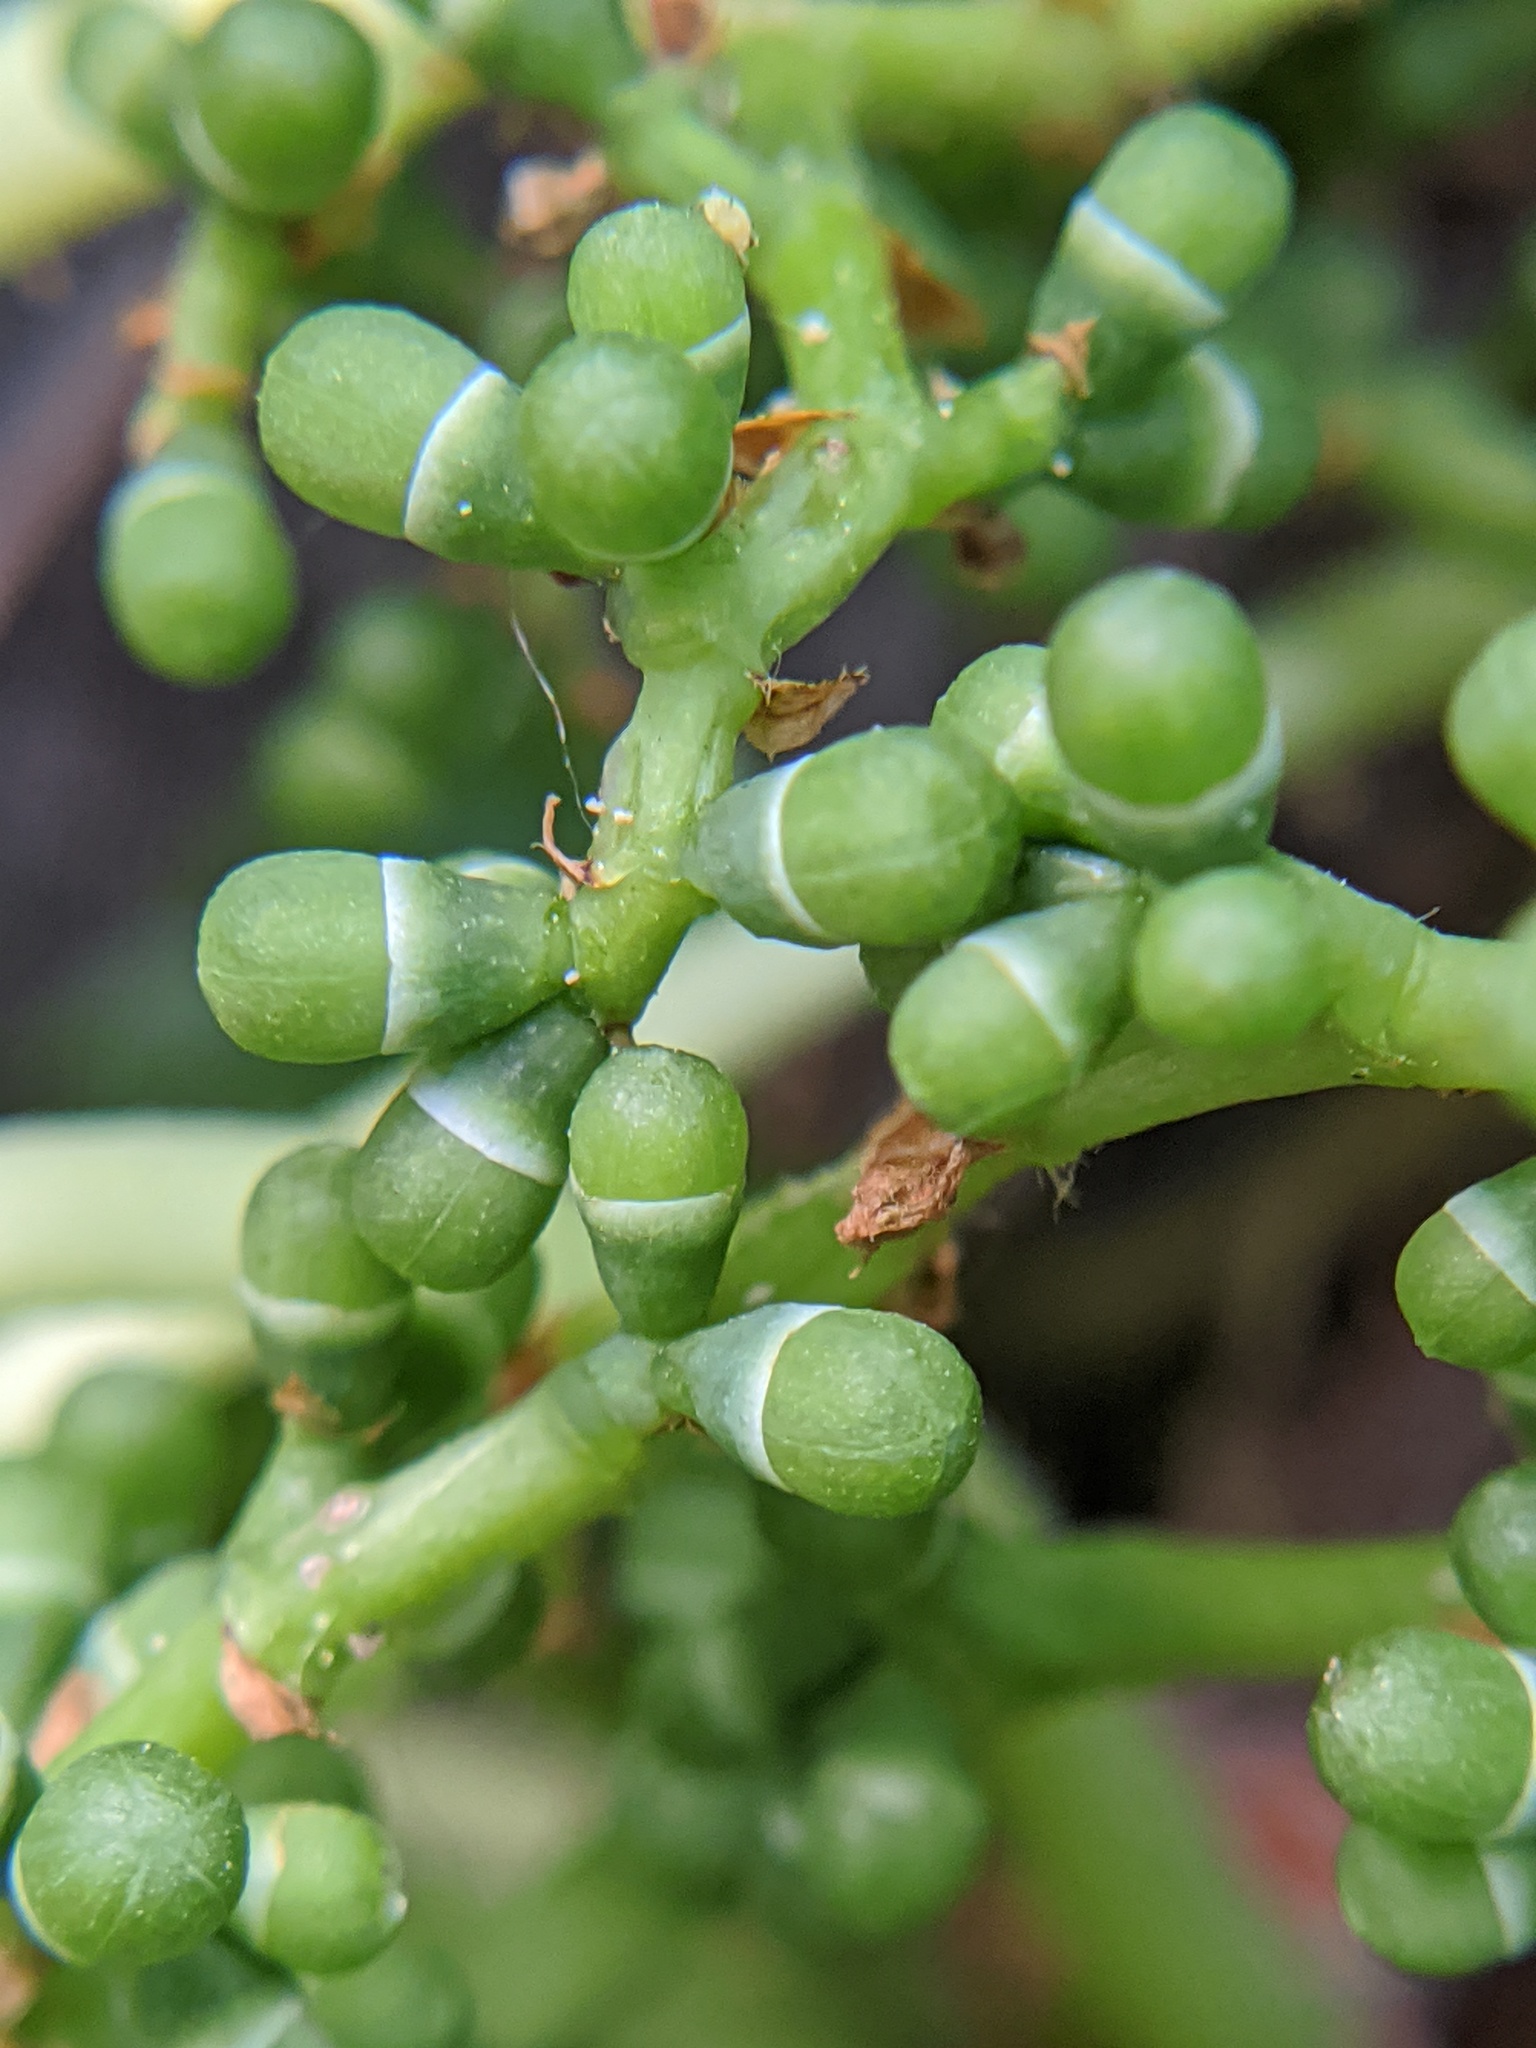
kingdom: Plantae
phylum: Tracheophyta
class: Magnoliopsida
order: Vitales
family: Vitaceae
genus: Parthenocissus
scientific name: Parthenocissus tricuspidata
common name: Boston ivy
